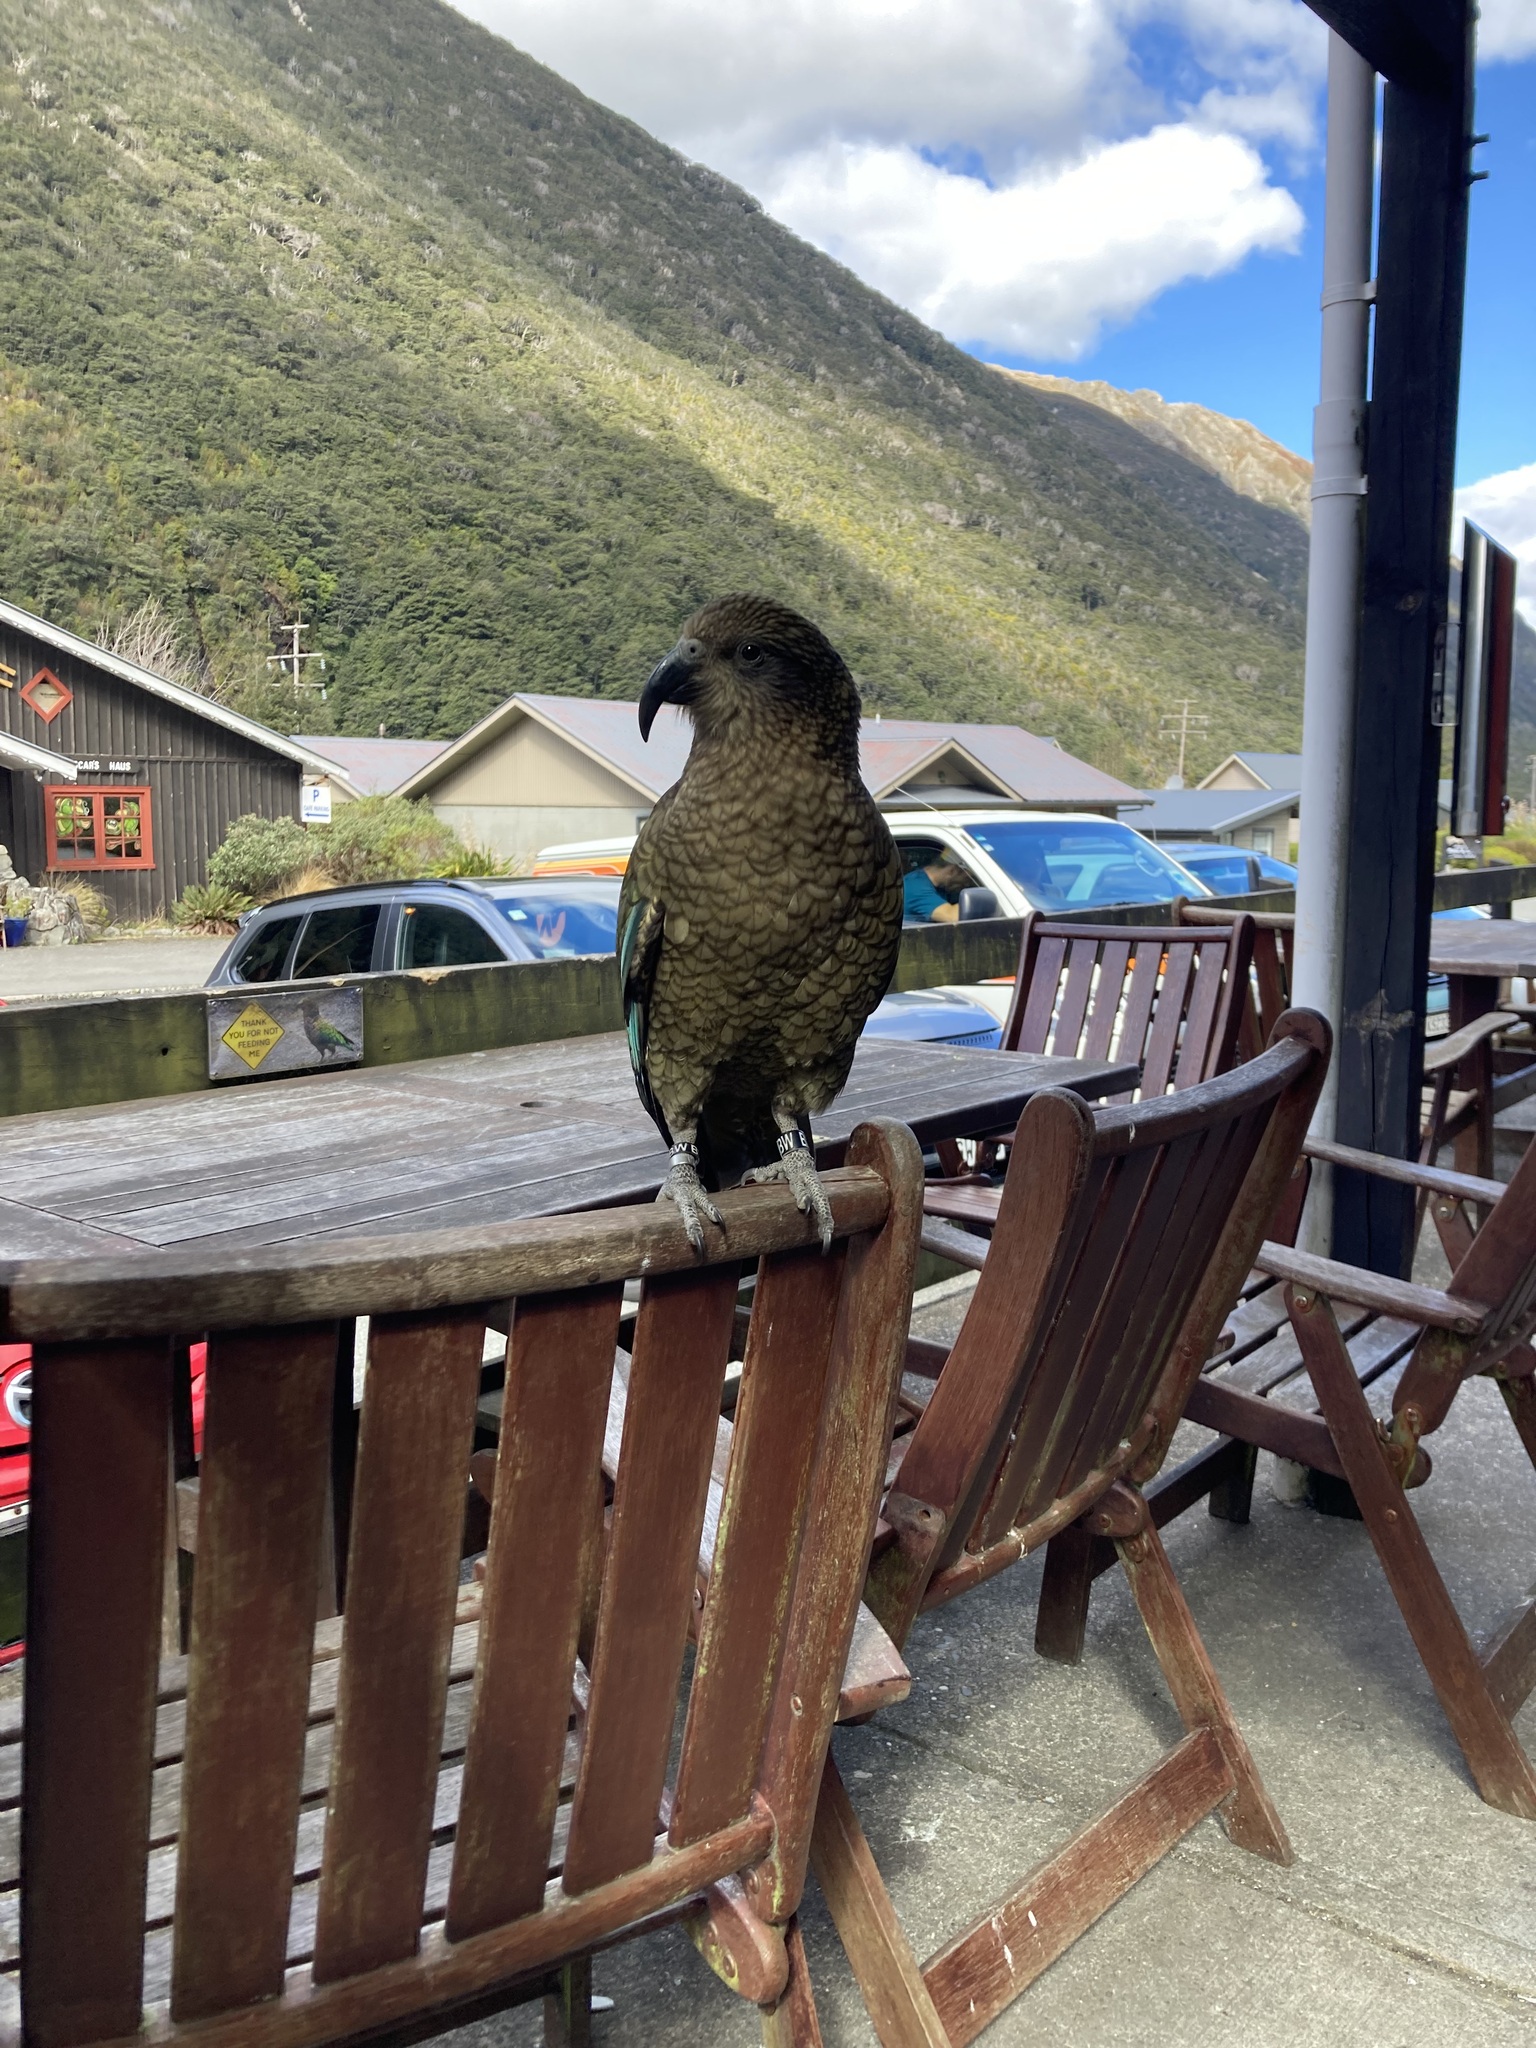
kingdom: Animalia
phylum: Chordata
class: Aves
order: Psittaciformes
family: Psittacidae
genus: Nestor
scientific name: Nestor notabilis
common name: Kea
